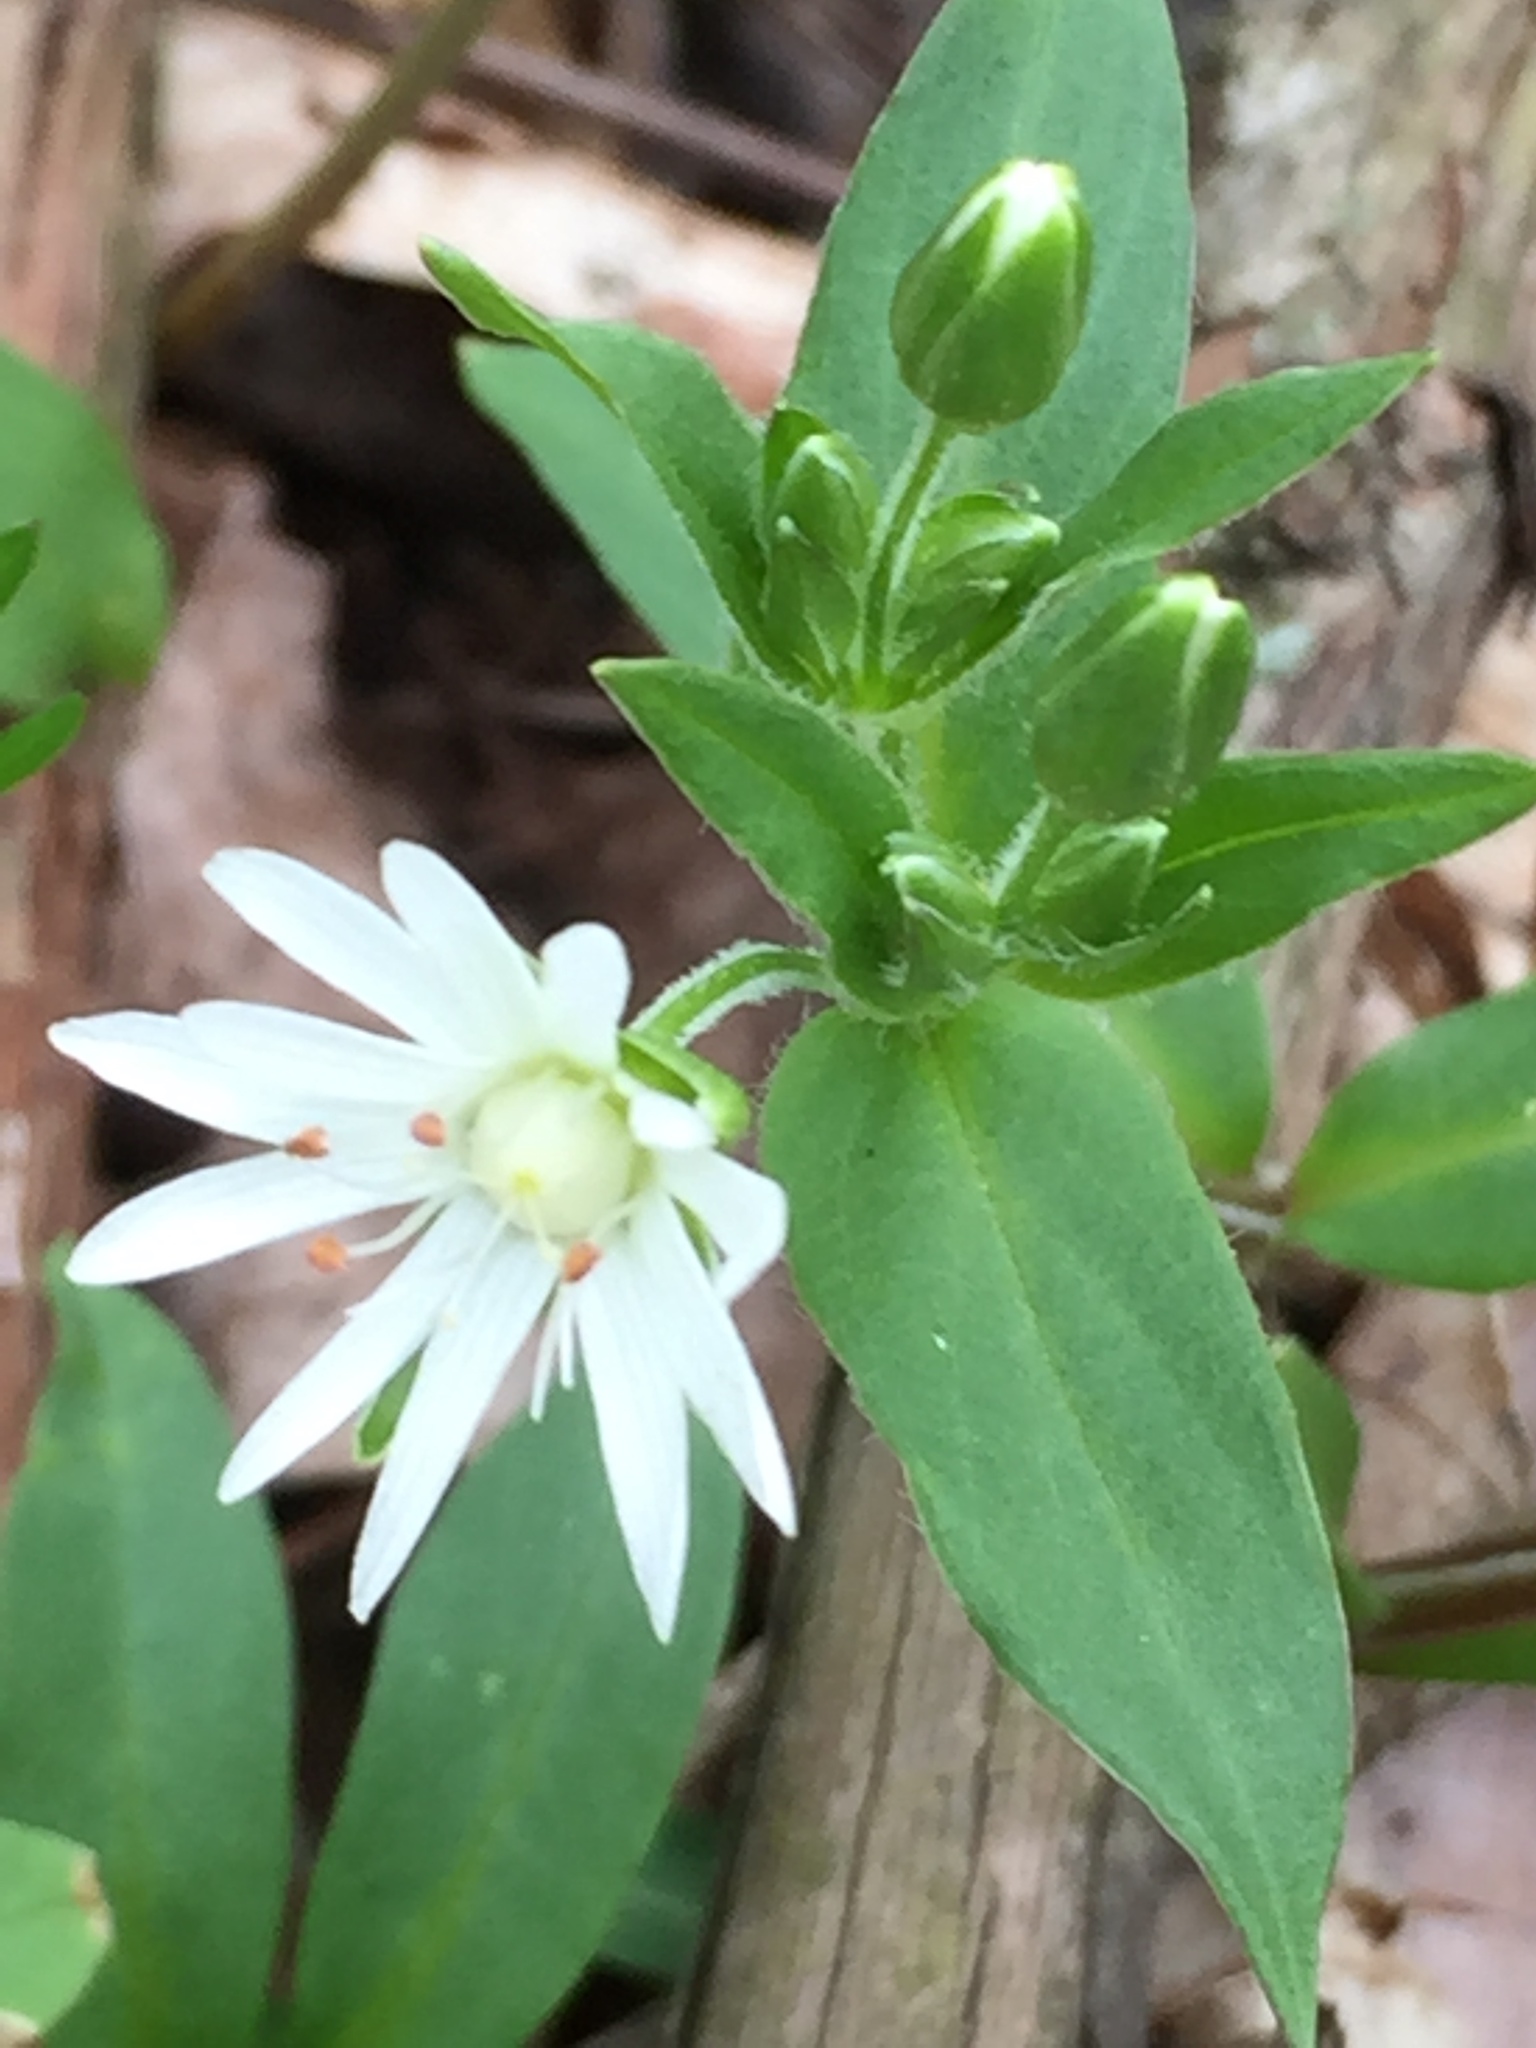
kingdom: Plantae
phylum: Tracheophyta
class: Magnoliopsida
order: Caryophyllales
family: Caryophyllaceae
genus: Stellaria
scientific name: Stellaria pubera
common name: Star chickweed
